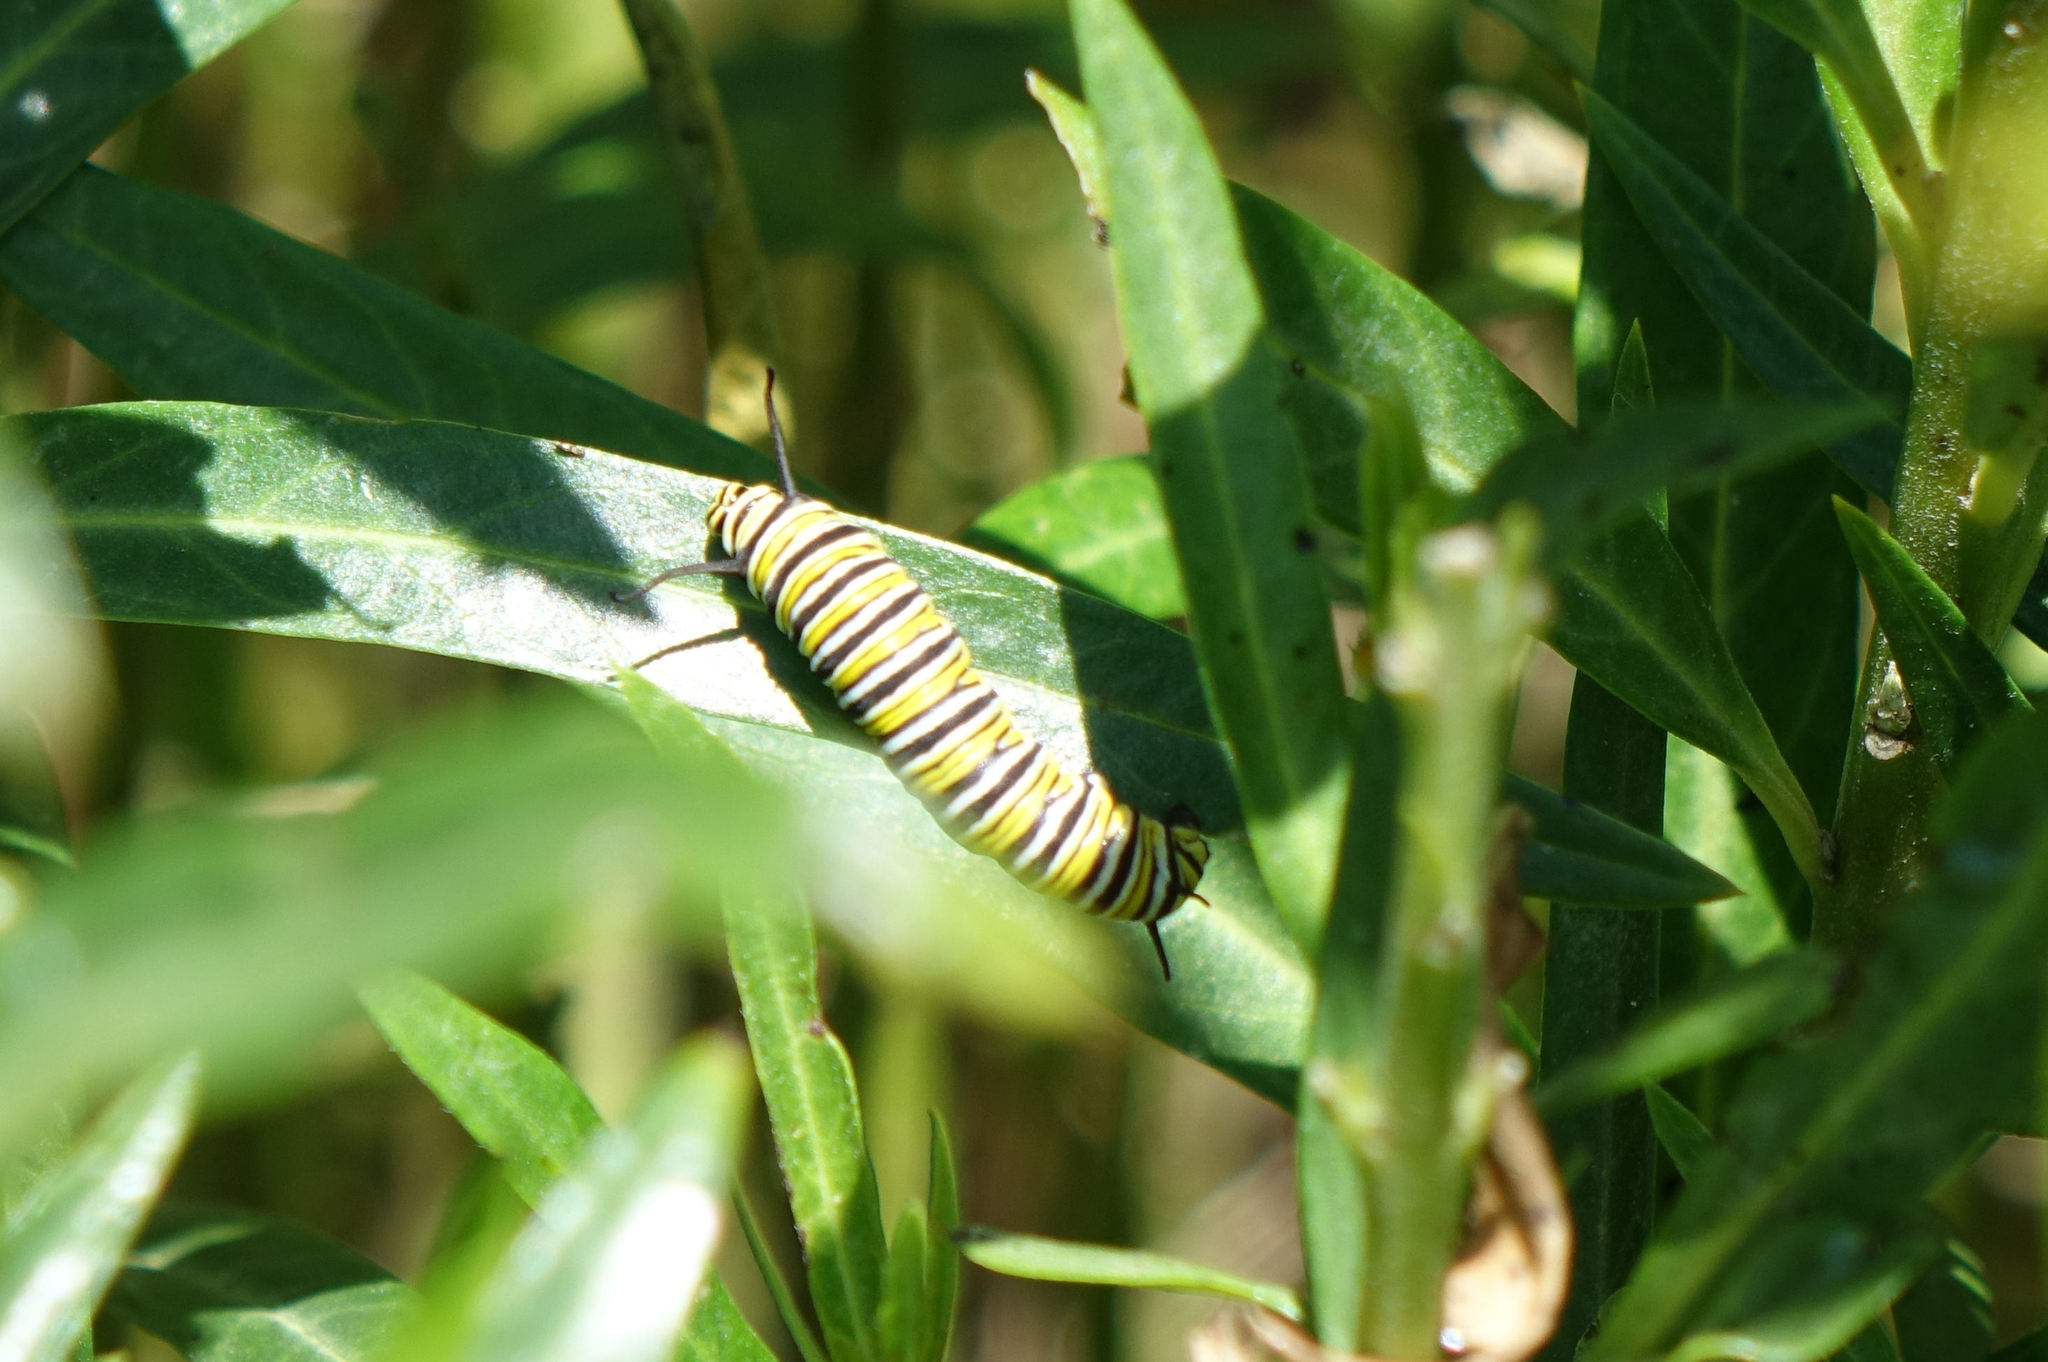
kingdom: Animalia
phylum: Arthropoda
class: Insecta
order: Lepidoptera
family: Nymphalidae
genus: Danaus
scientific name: Danaus plexippus
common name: Monarch
